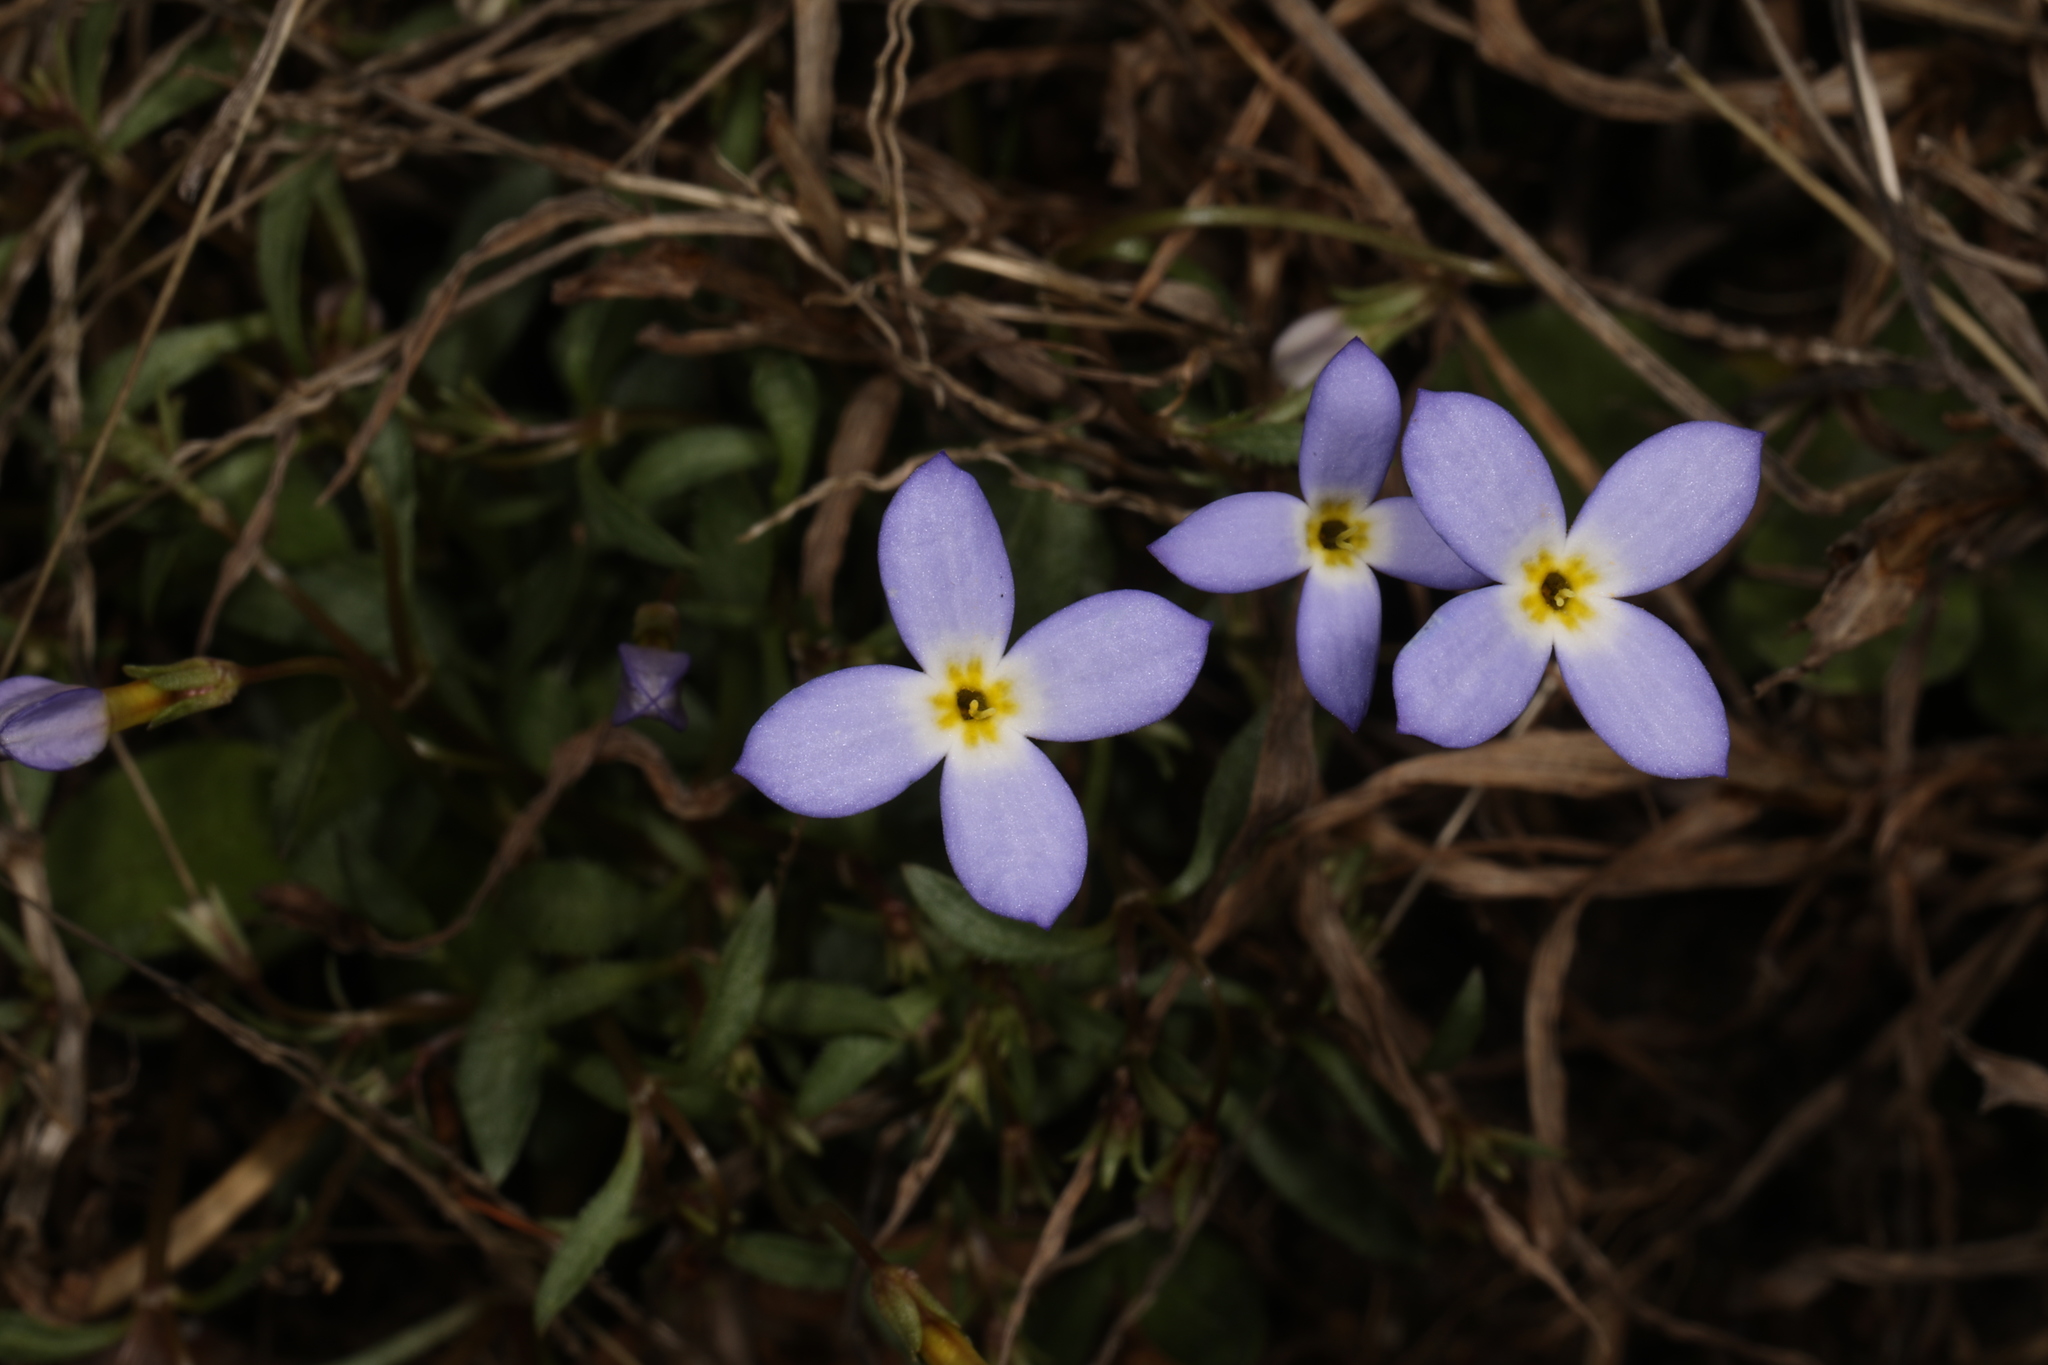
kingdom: Plantae
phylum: Tracheophyta
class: Magnoliopsida
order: Gentianales
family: Rubiaceae
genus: Houstonia
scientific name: Houstonia caerulea
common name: Bluets
